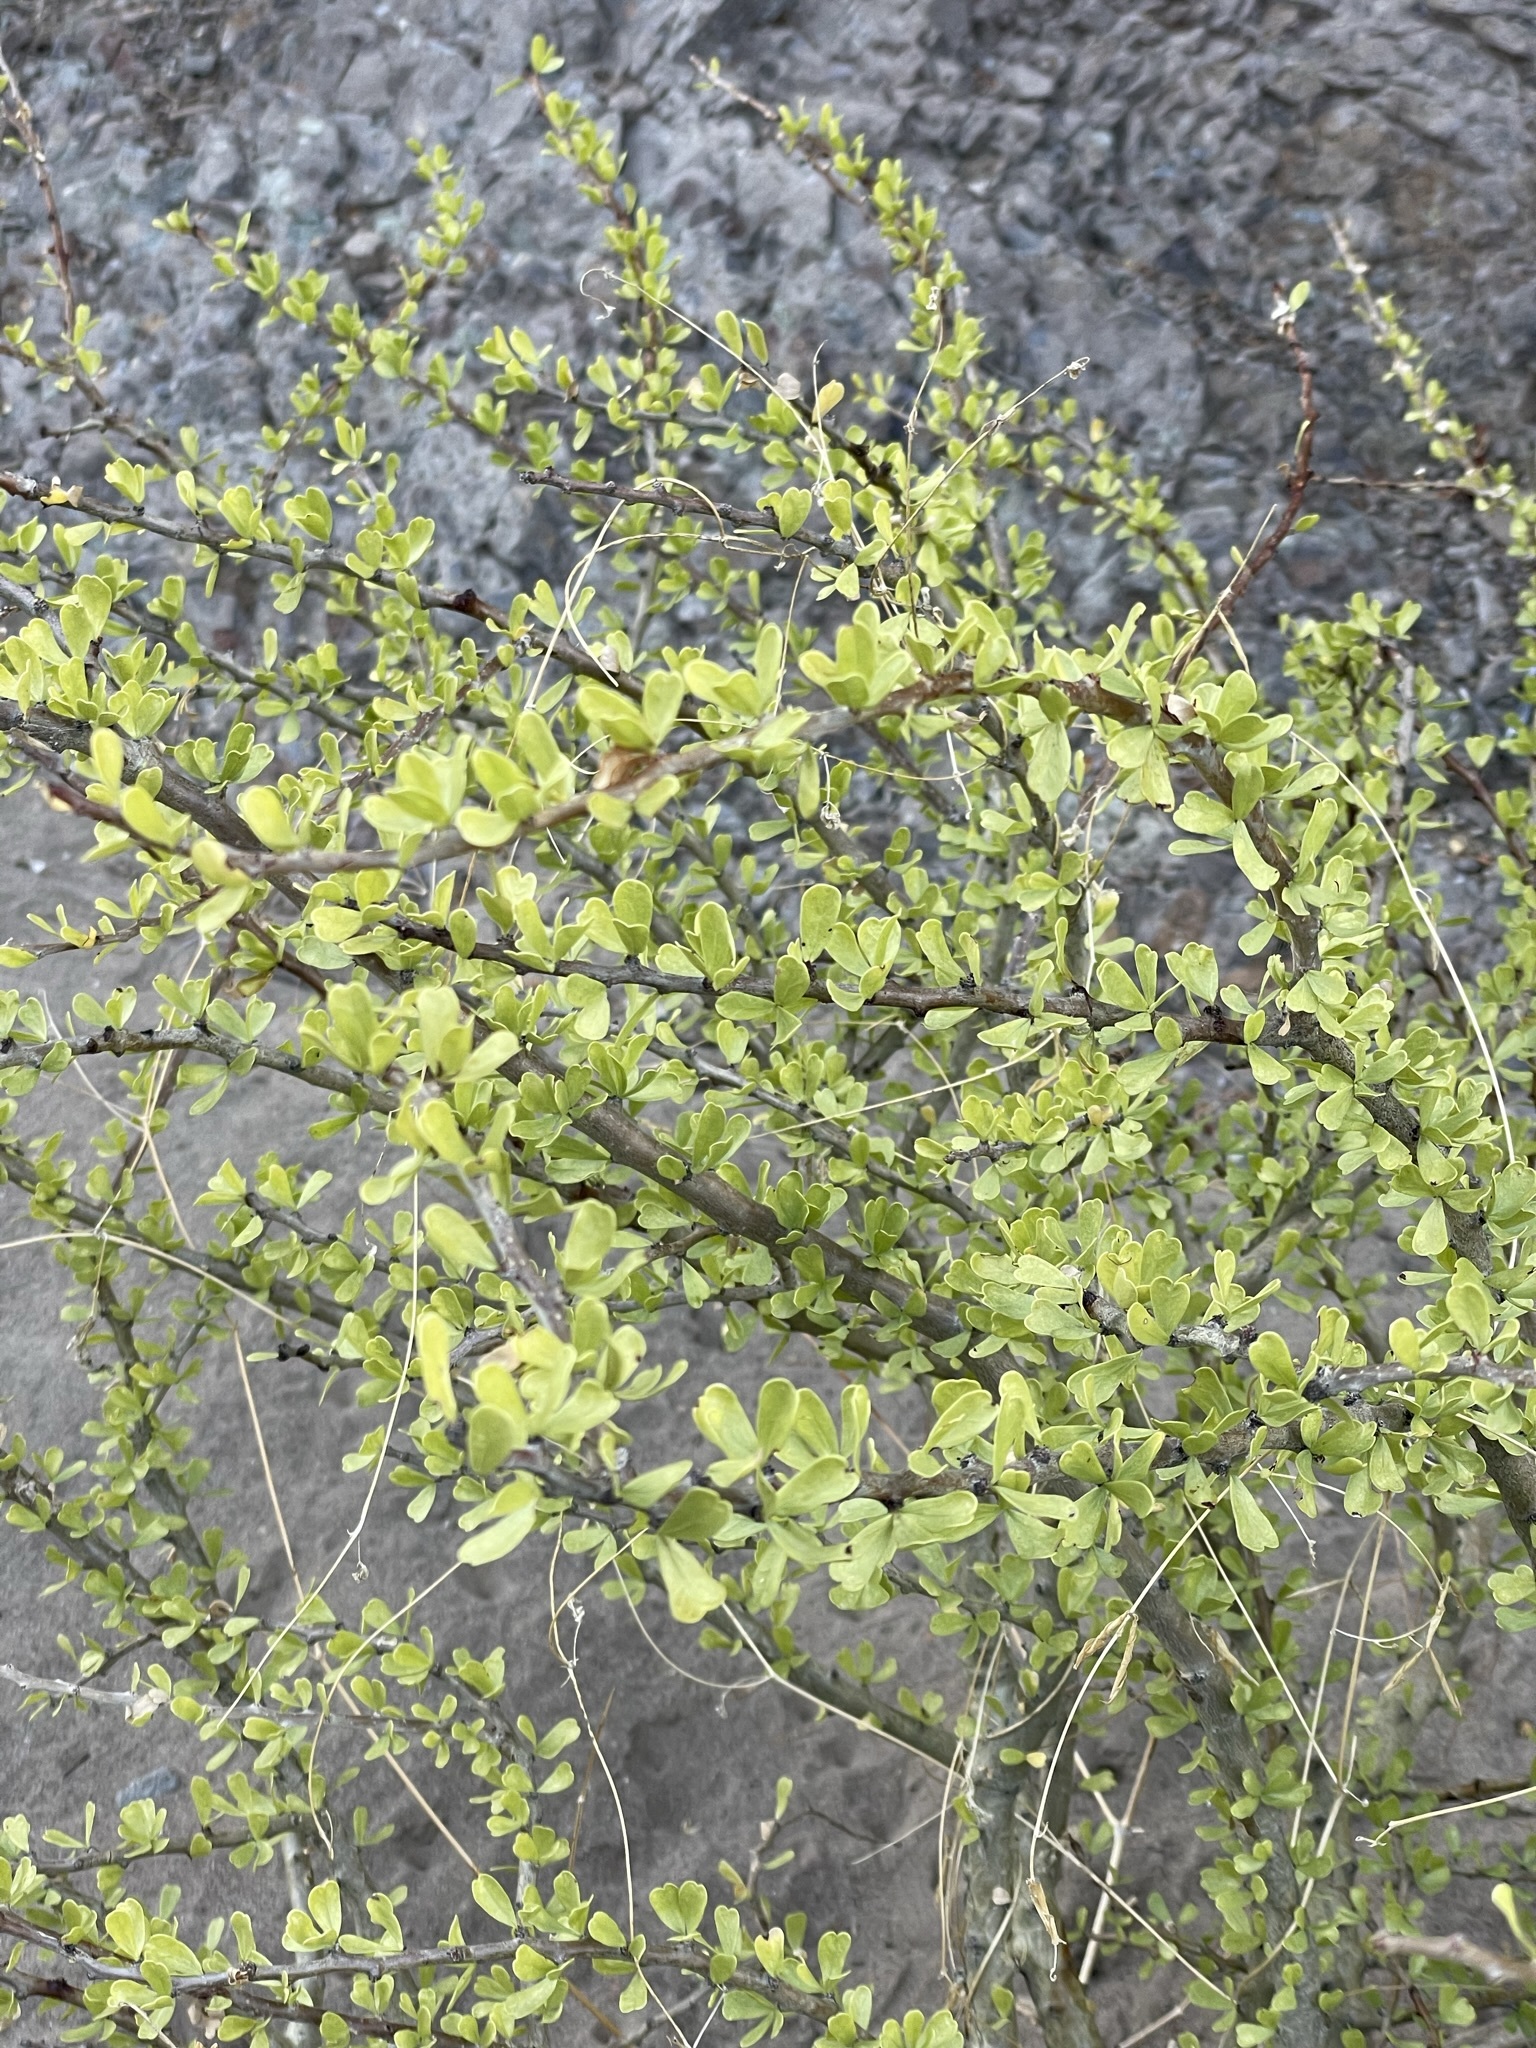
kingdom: Plantae
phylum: Tracheophyta
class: Magnoliopsida
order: Malpighiales
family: Euphorbiaceae
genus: Jatropha
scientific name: Jatropha cuneata
